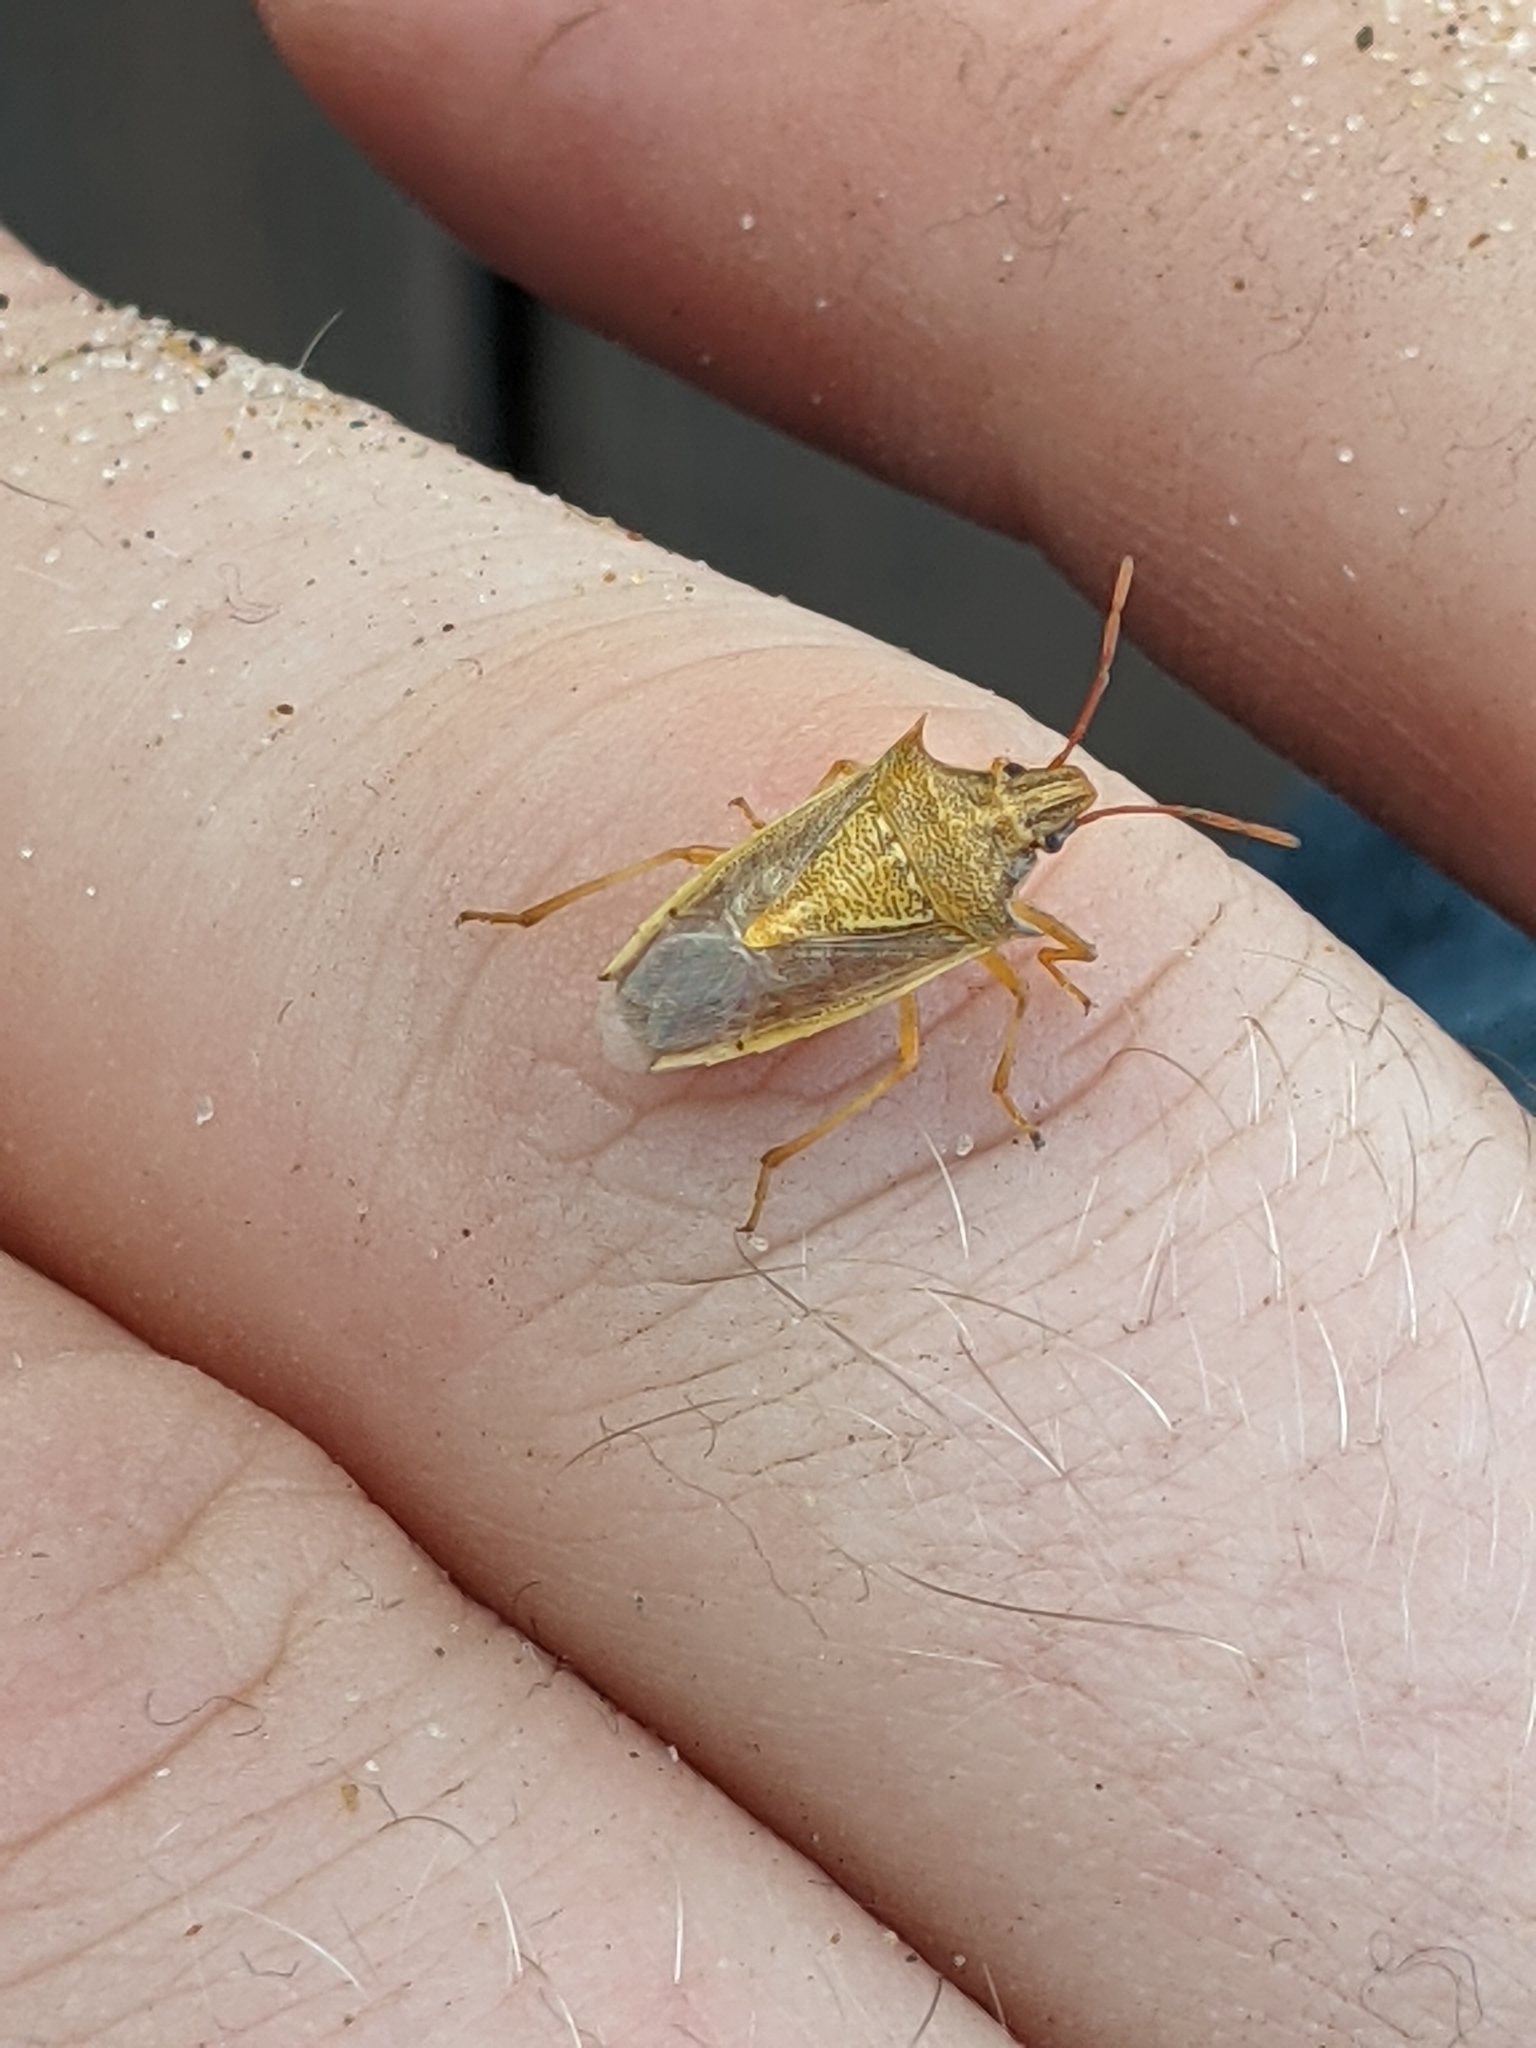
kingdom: Animalia
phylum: Arthropoda
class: Insecta
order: Hemiptera
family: Pentatomidae
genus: Oebalus
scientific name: Oebalus pugnax
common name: Rice stink bug
